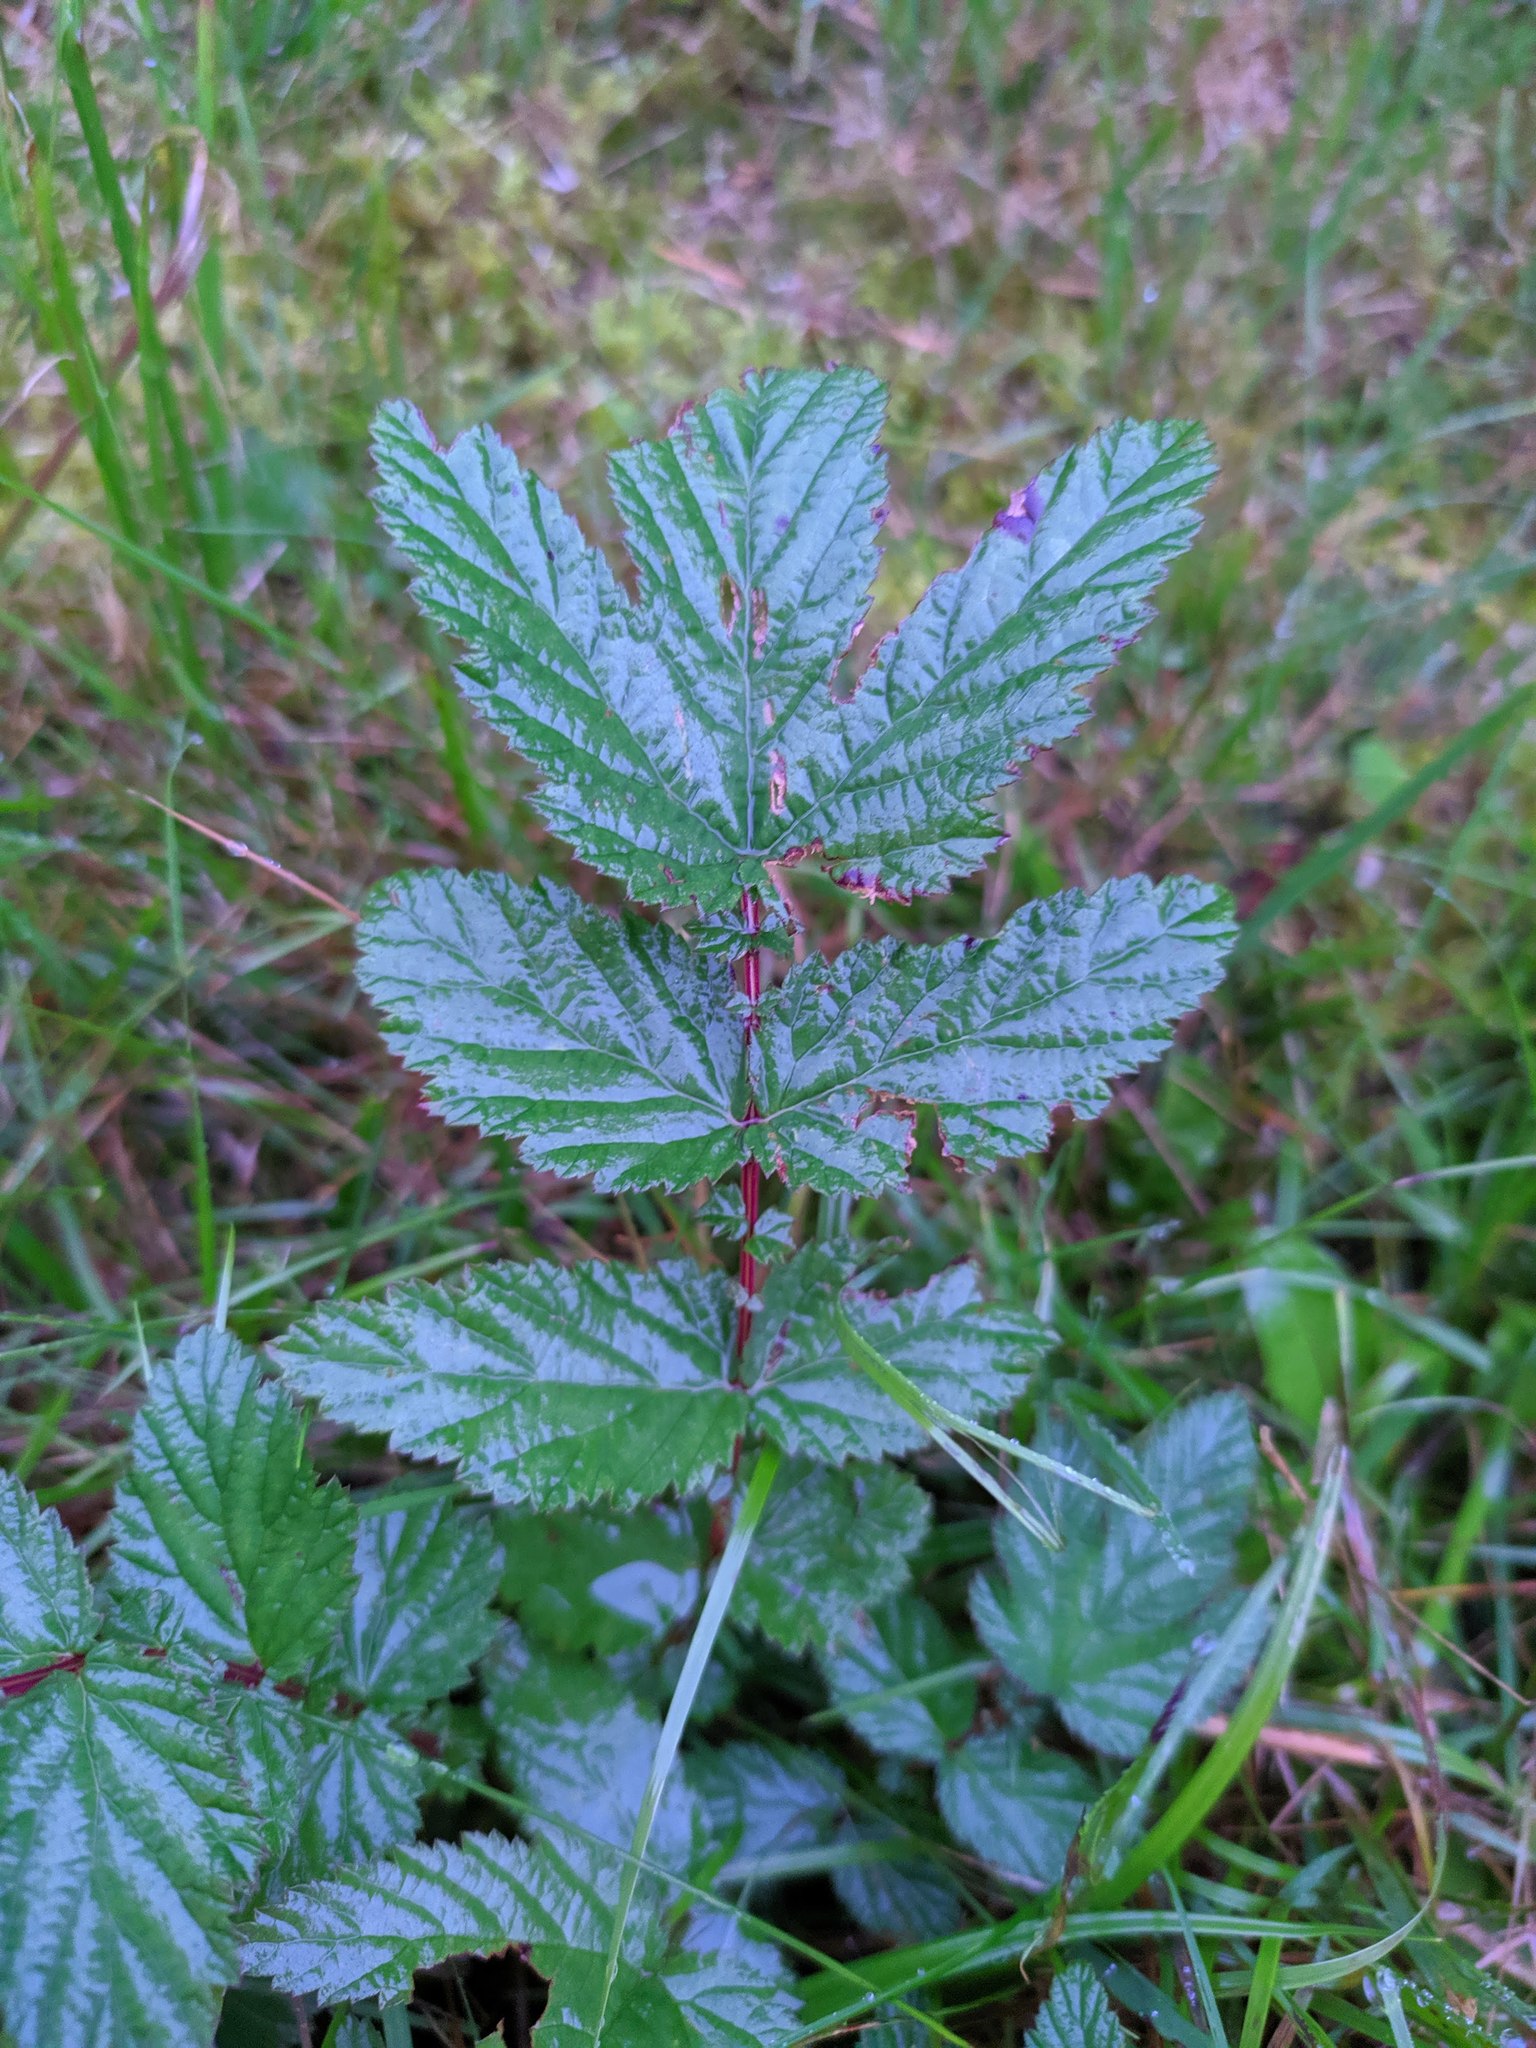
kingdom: Plantae
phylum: Tracheophyta
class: Magnoliopsida
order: Rosales
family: Rosaceae
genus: Filipendula
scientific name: Filipendula ulmaria
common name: Meadowsweet
